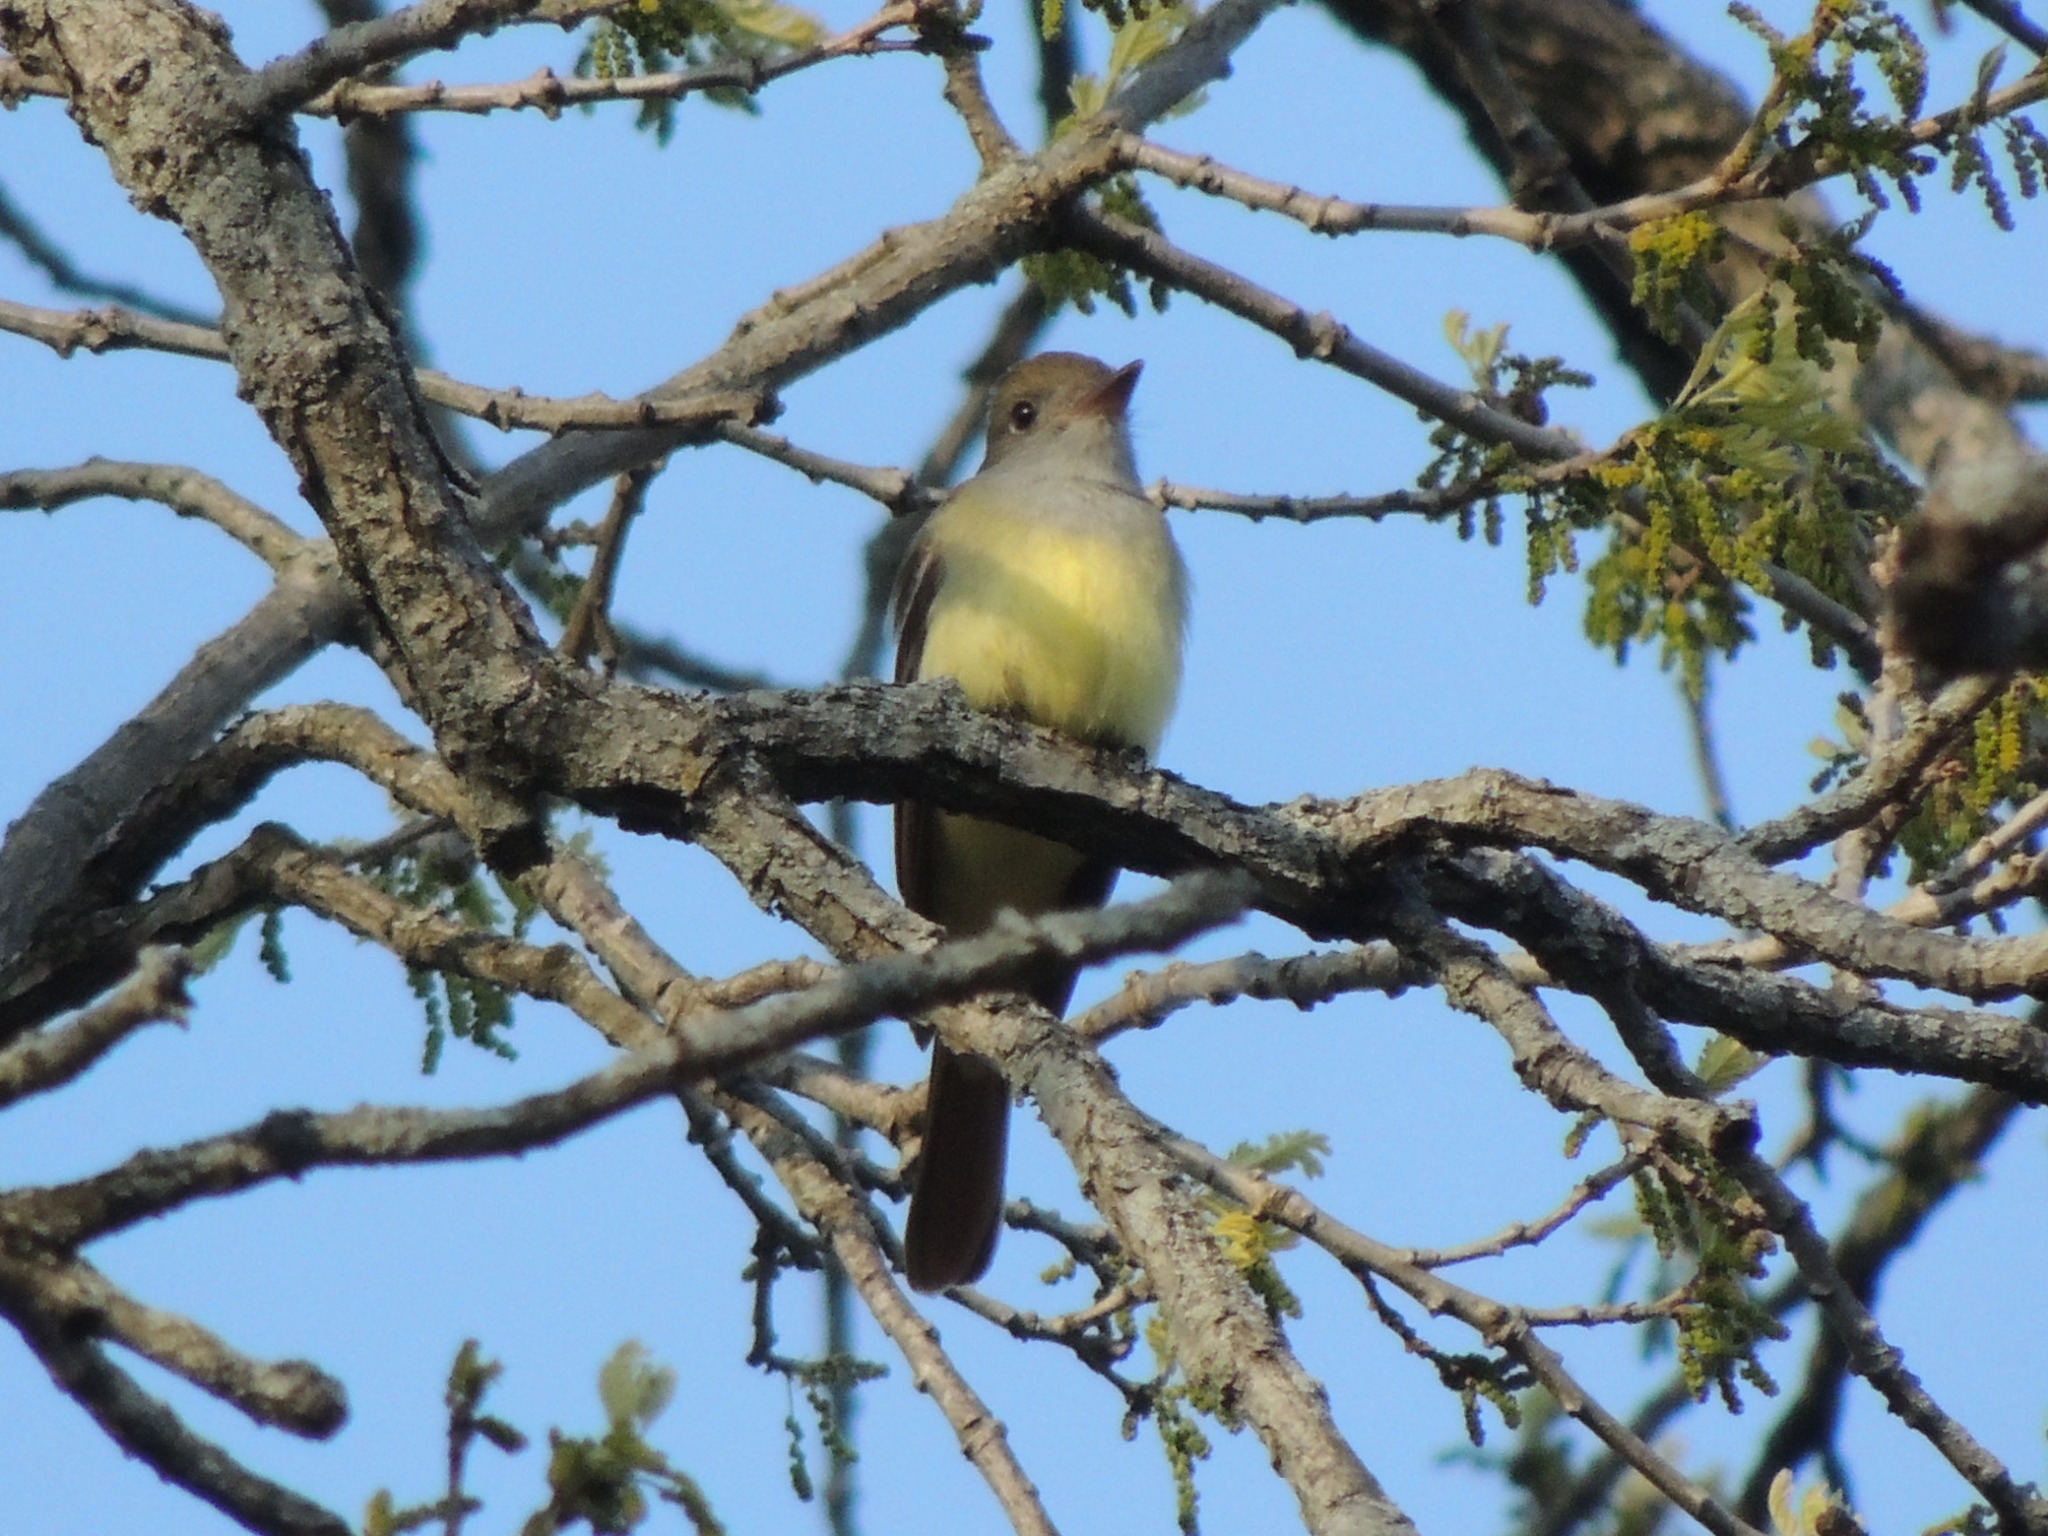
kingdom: Animalia
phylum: Chordata
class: Aves
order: Passeriformes
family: Tyrannidae
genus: Myiarchus
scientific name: Myiarchus crinitus
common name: Great crested flycatcher
